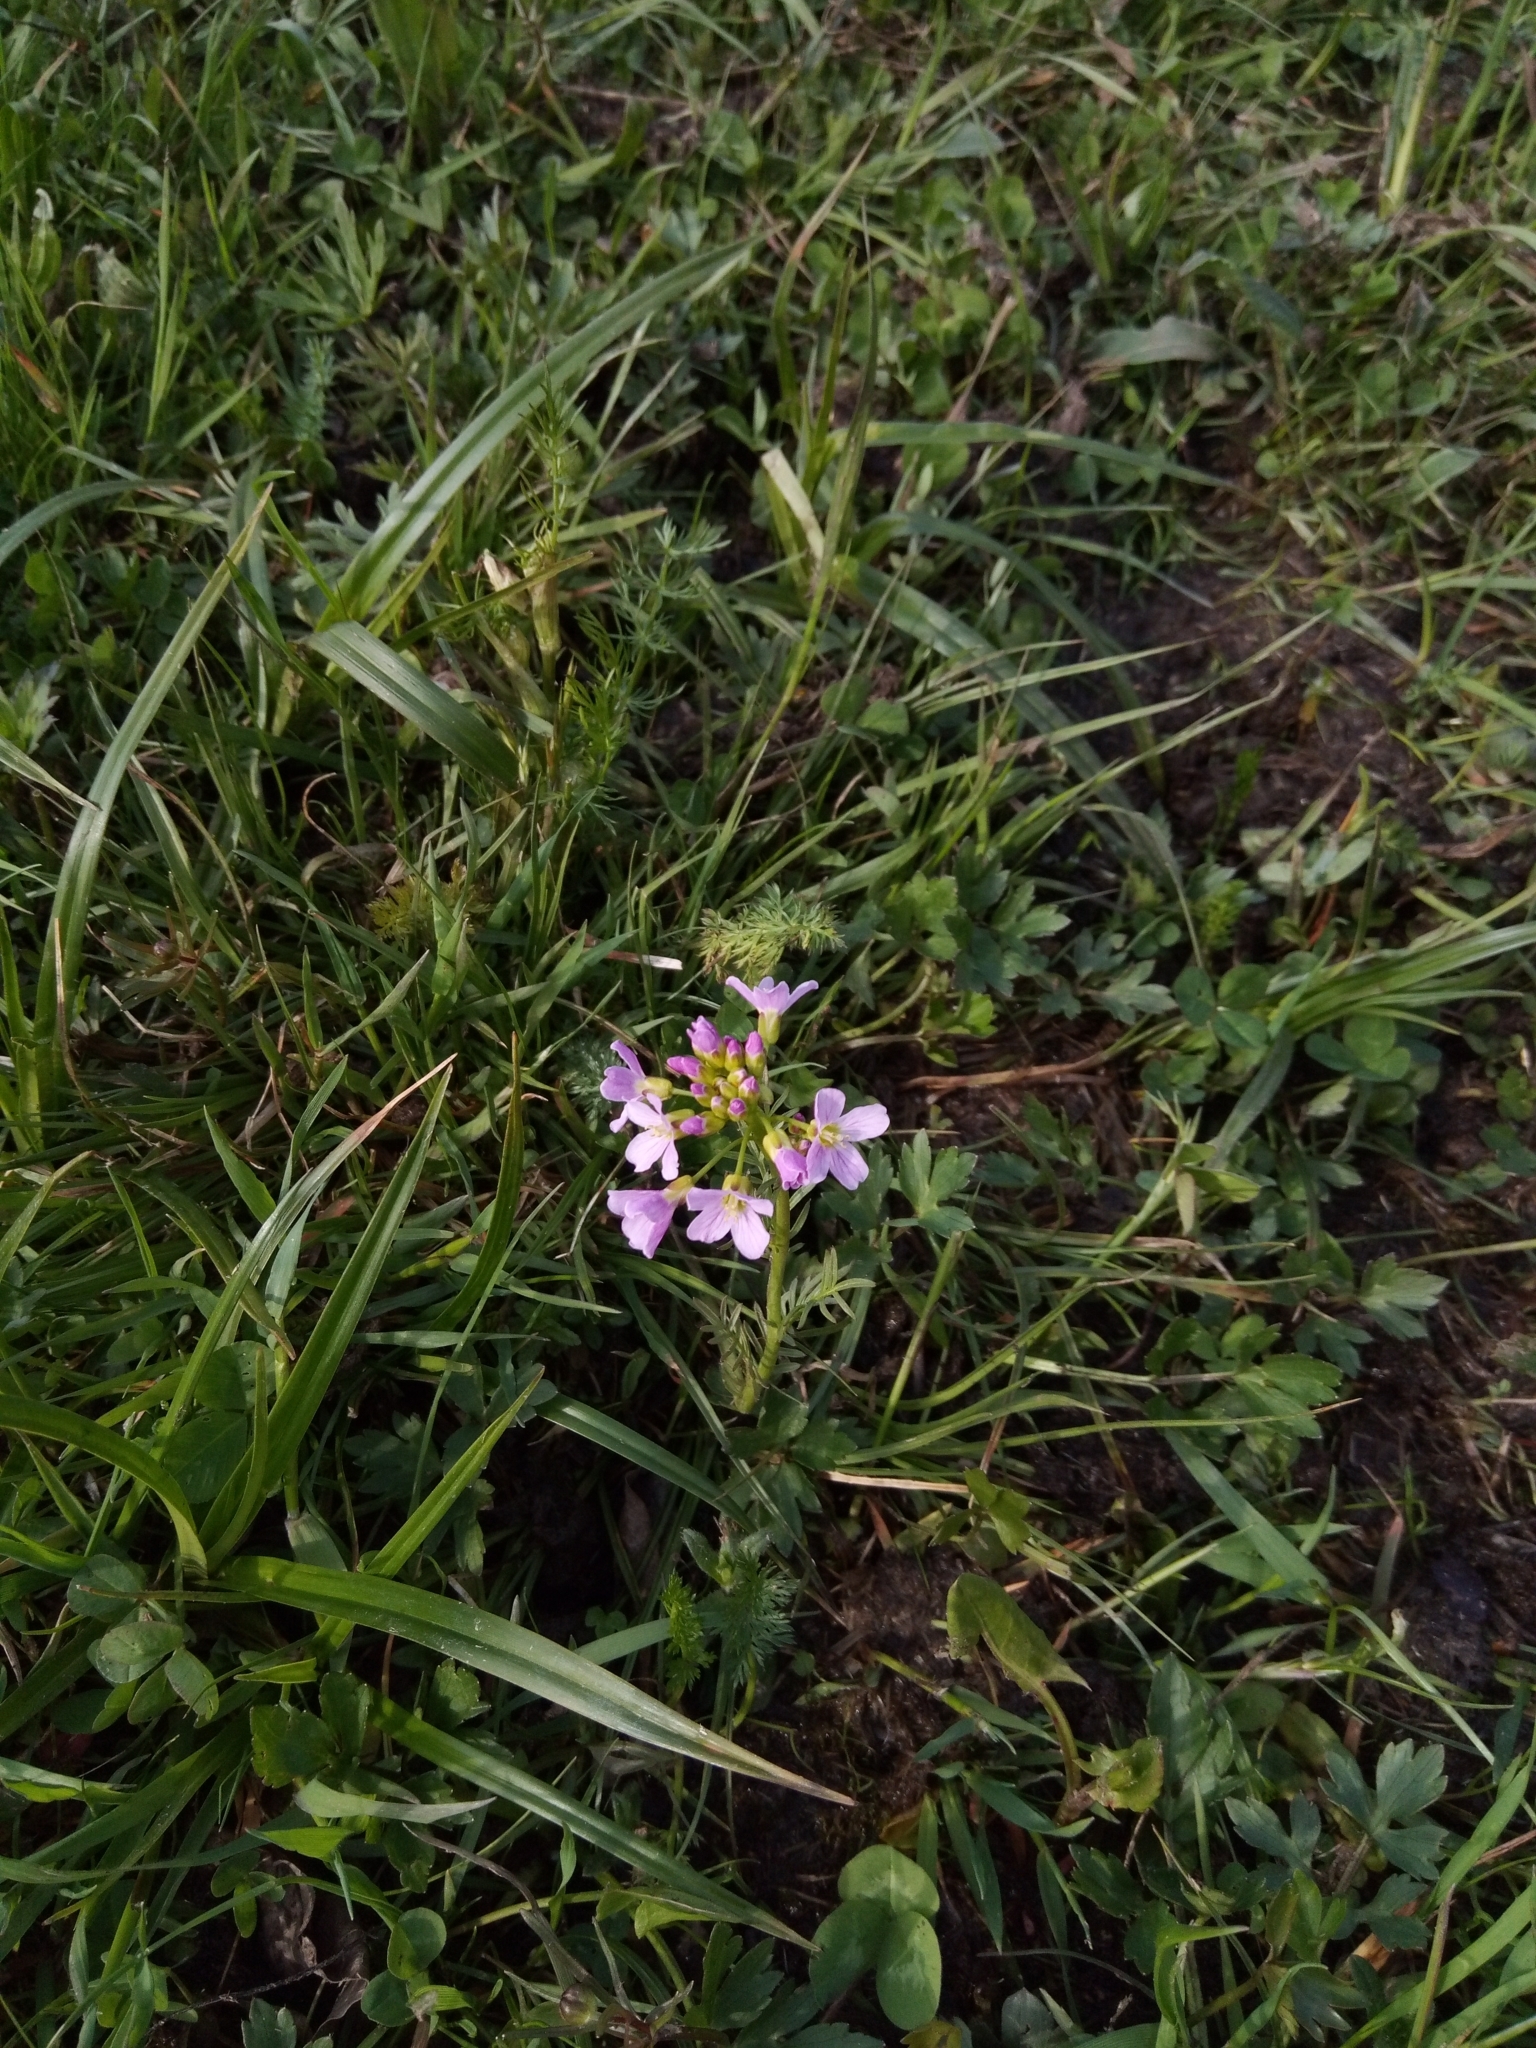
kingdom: Plantae
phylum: Tracheophyta
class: Magnoliopsida
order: Brassicales
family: Brassicaceae
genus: Cardamine
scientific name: Cardamine pratensis
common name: Cuckoo flower
